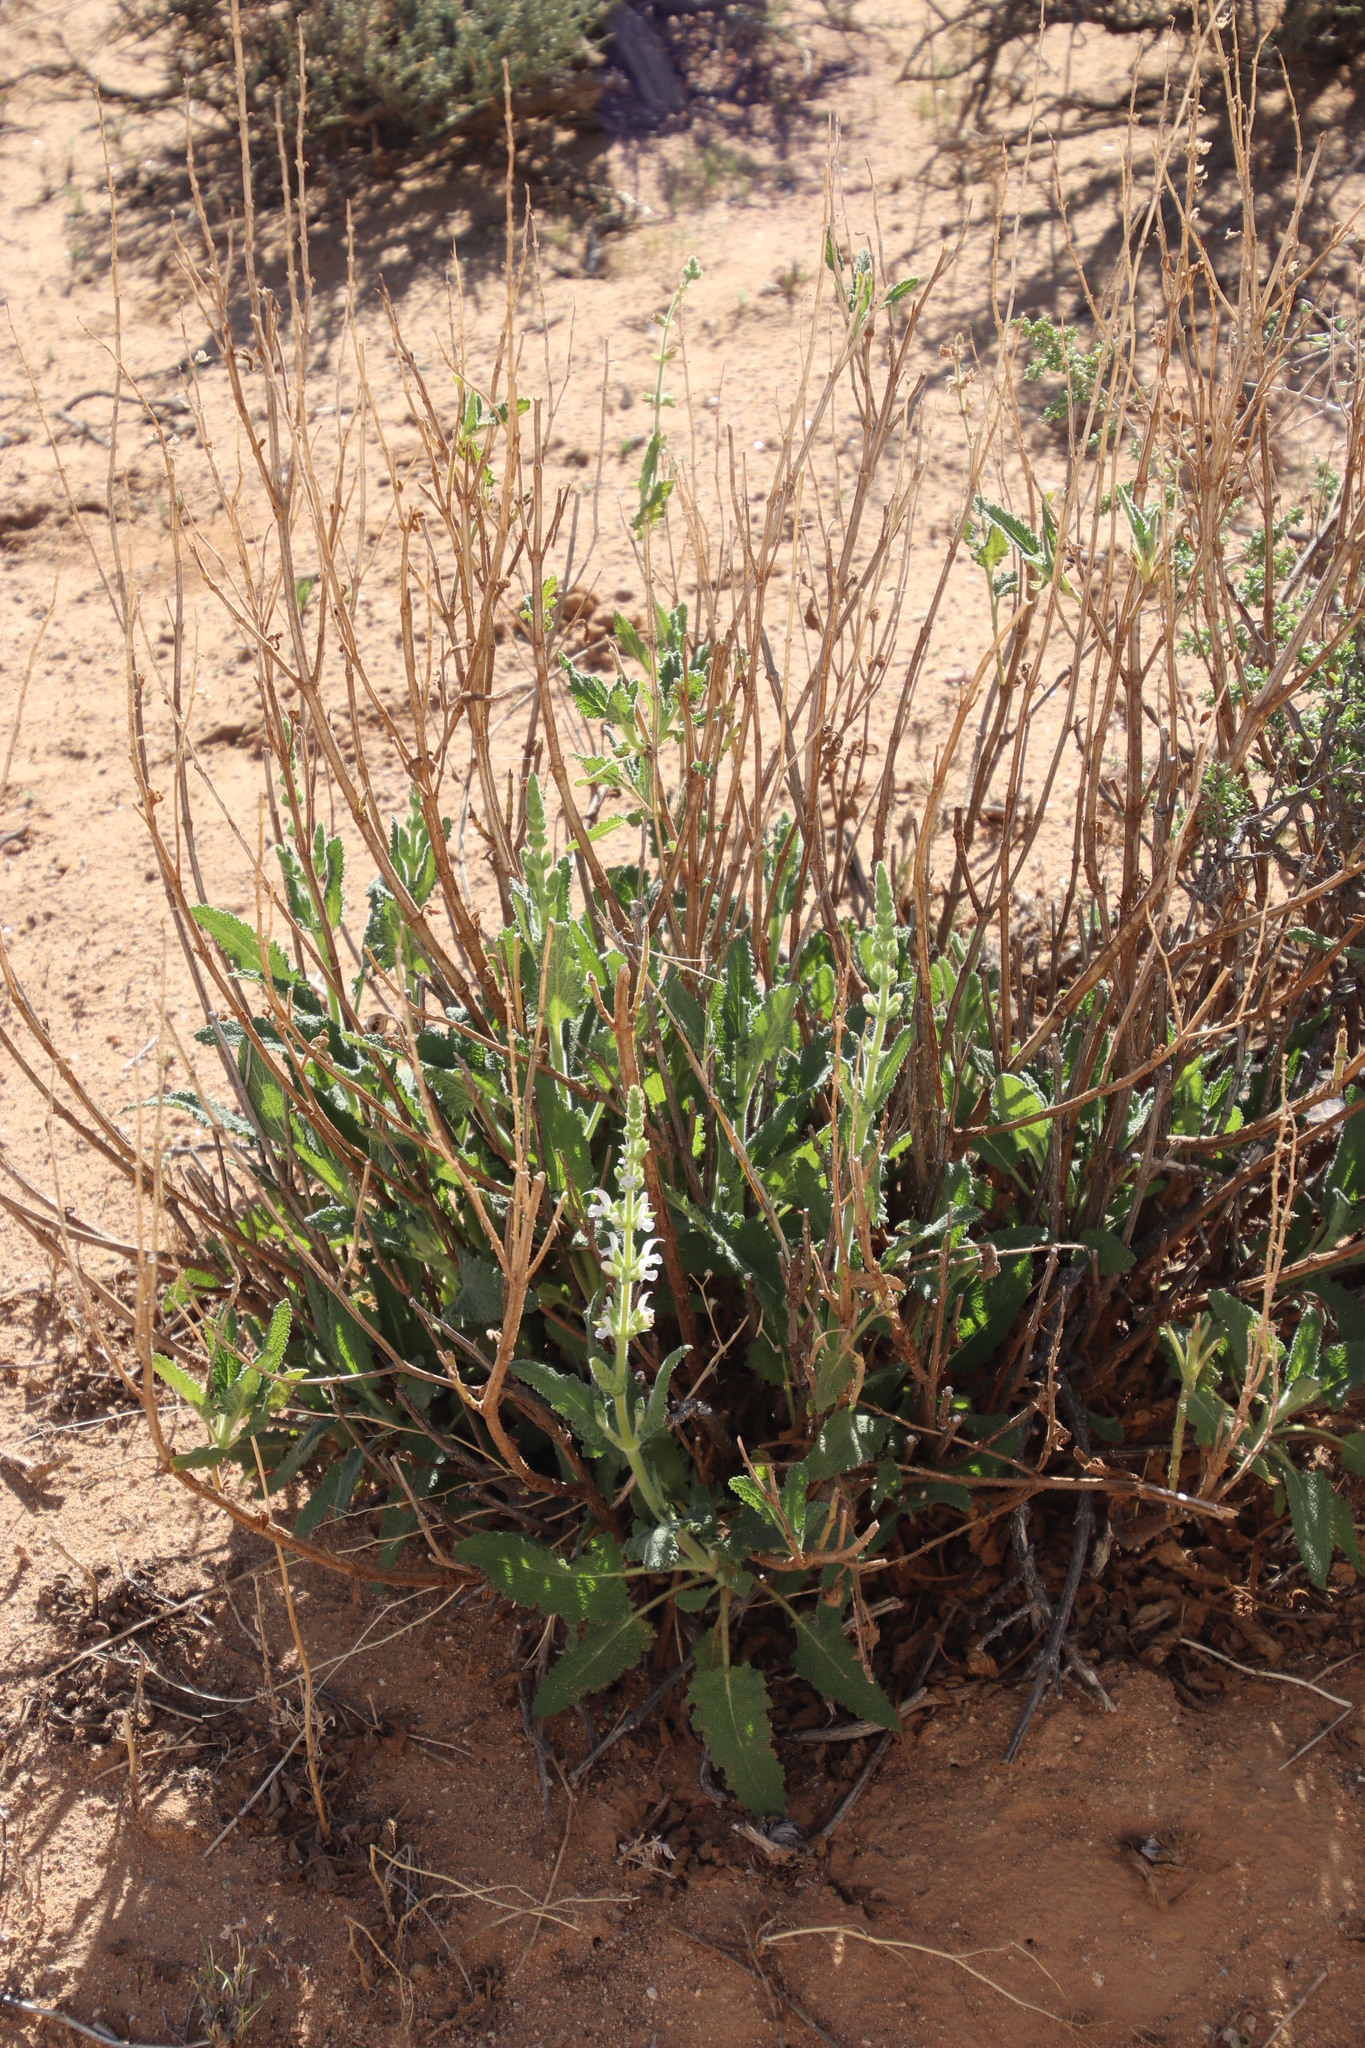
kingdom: Plantae
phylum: Tracheophyta
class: Magnoliopsida
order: Lamiales
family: Lamiaceae
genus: Salvia
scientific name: Salvia verbenaca
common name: Wild clary
